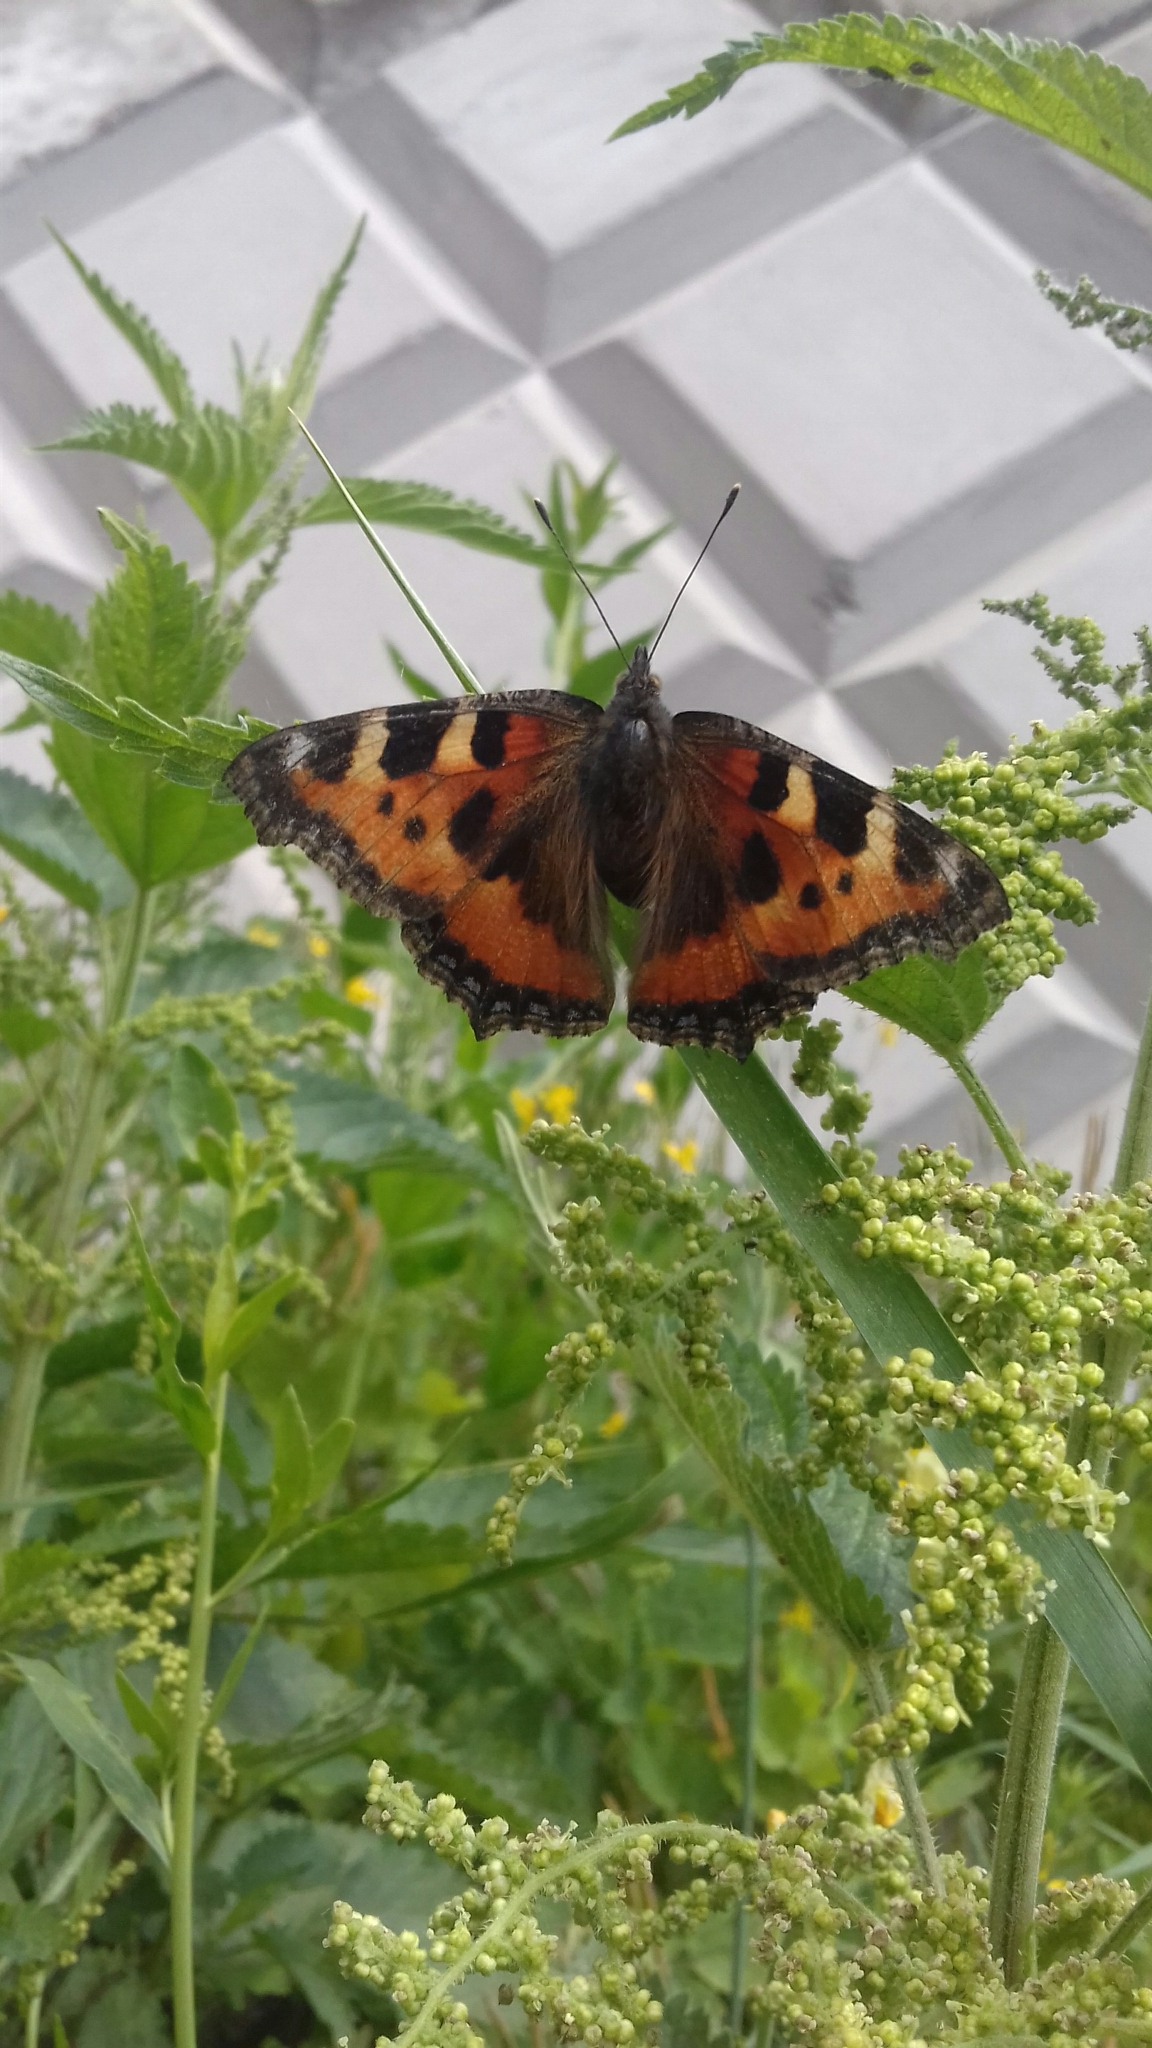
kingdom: Animalia
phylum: Arthropoda
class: Insecta
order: Lepidoptera
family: Nymphalidae
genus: Aglais
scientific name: Aglais urticae
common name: Small tortoiseshell
